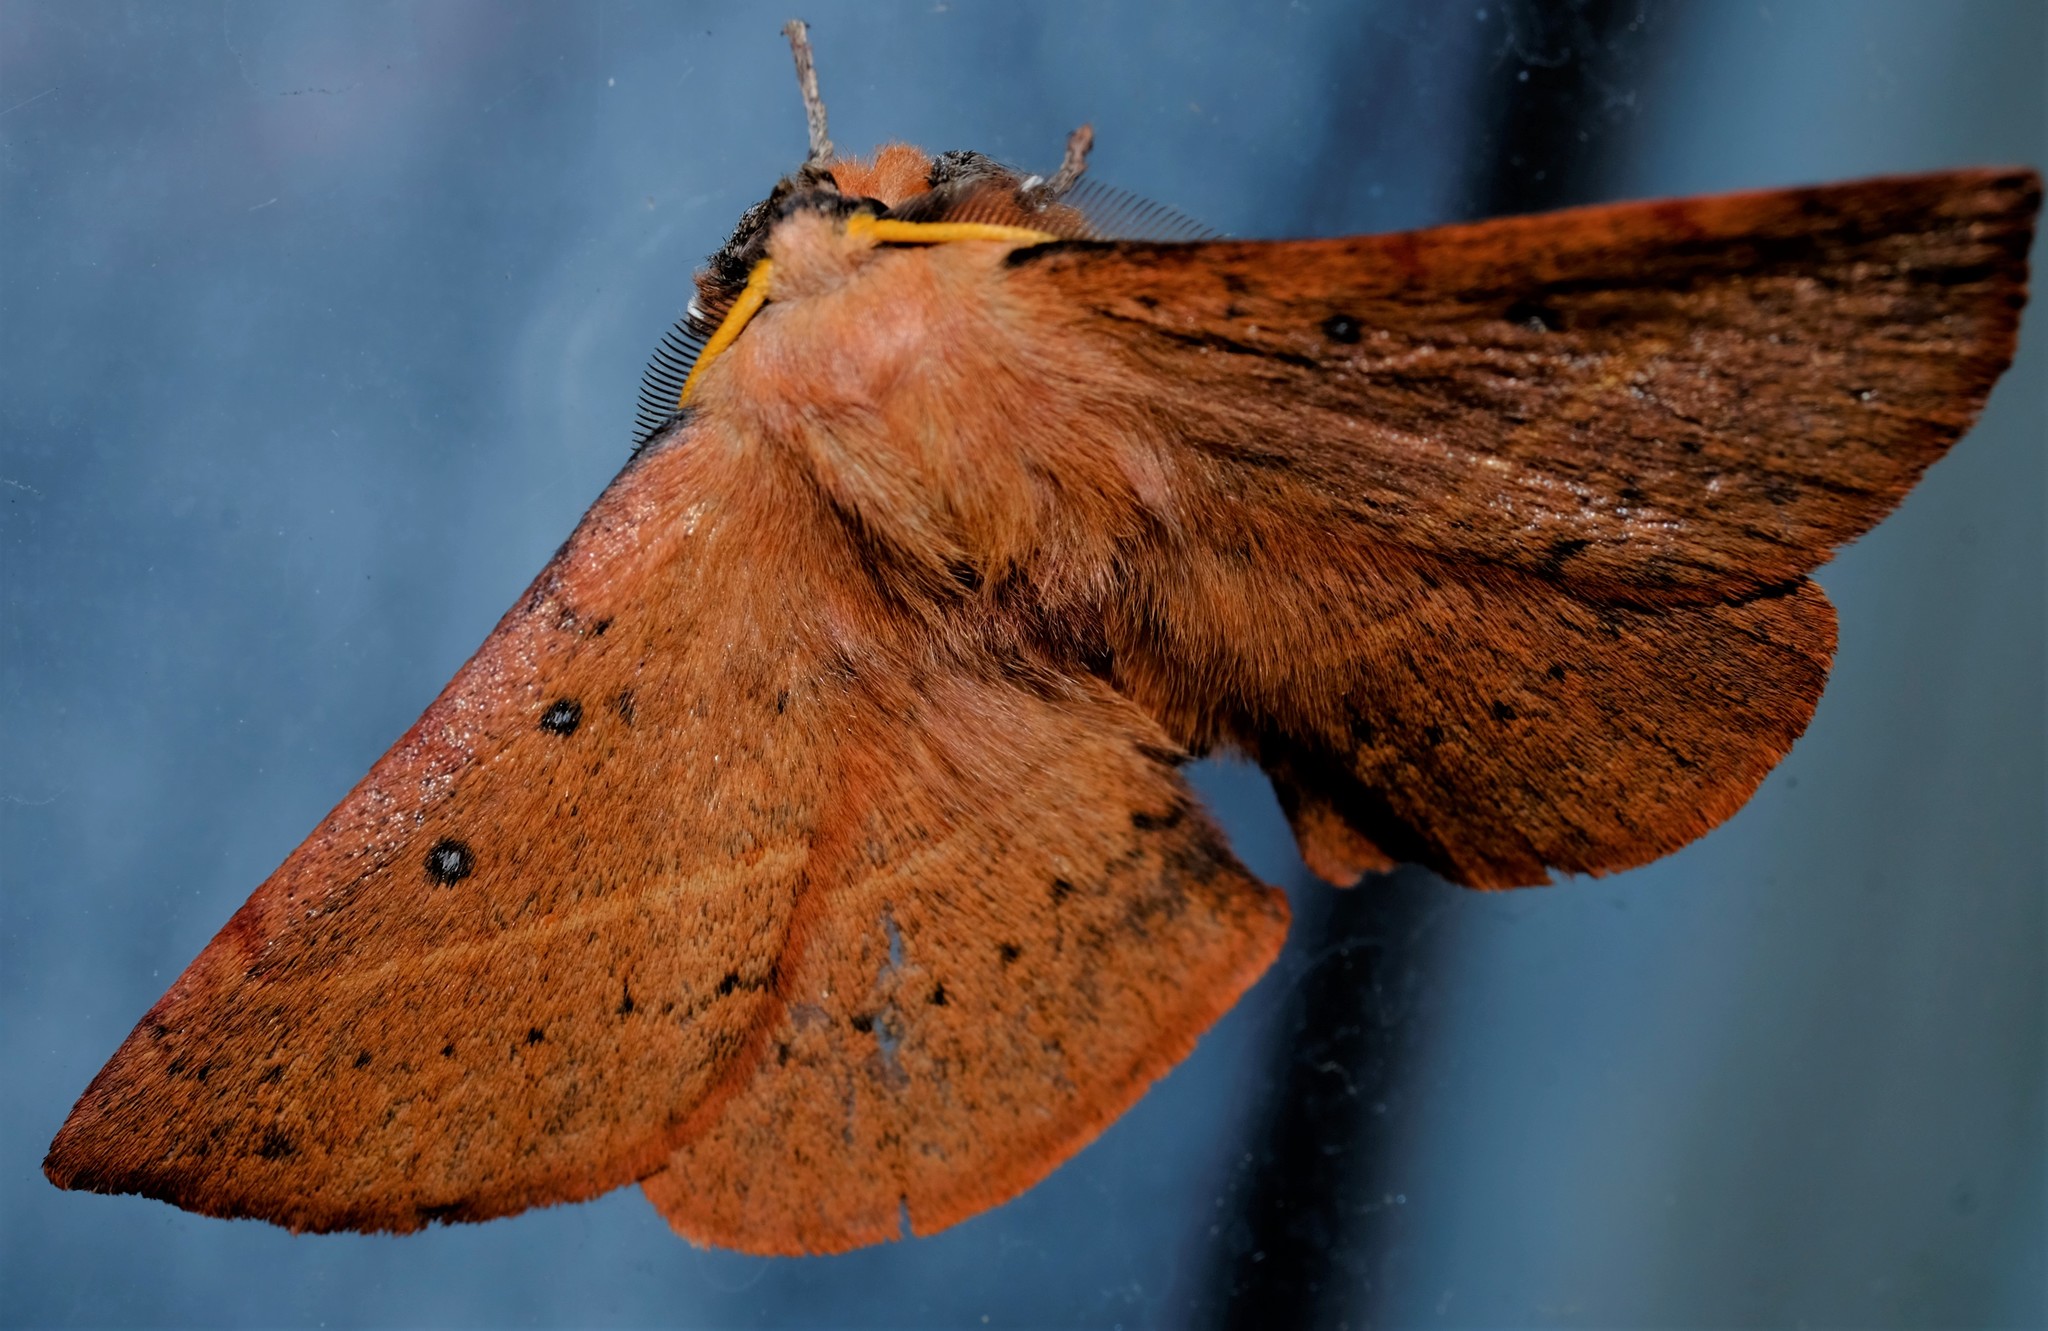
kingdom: Animalia
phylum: Arthropoda
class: Insecta
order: Lepidoptera
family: Anthelidae
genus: Anthela
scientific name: Anthela acuta
